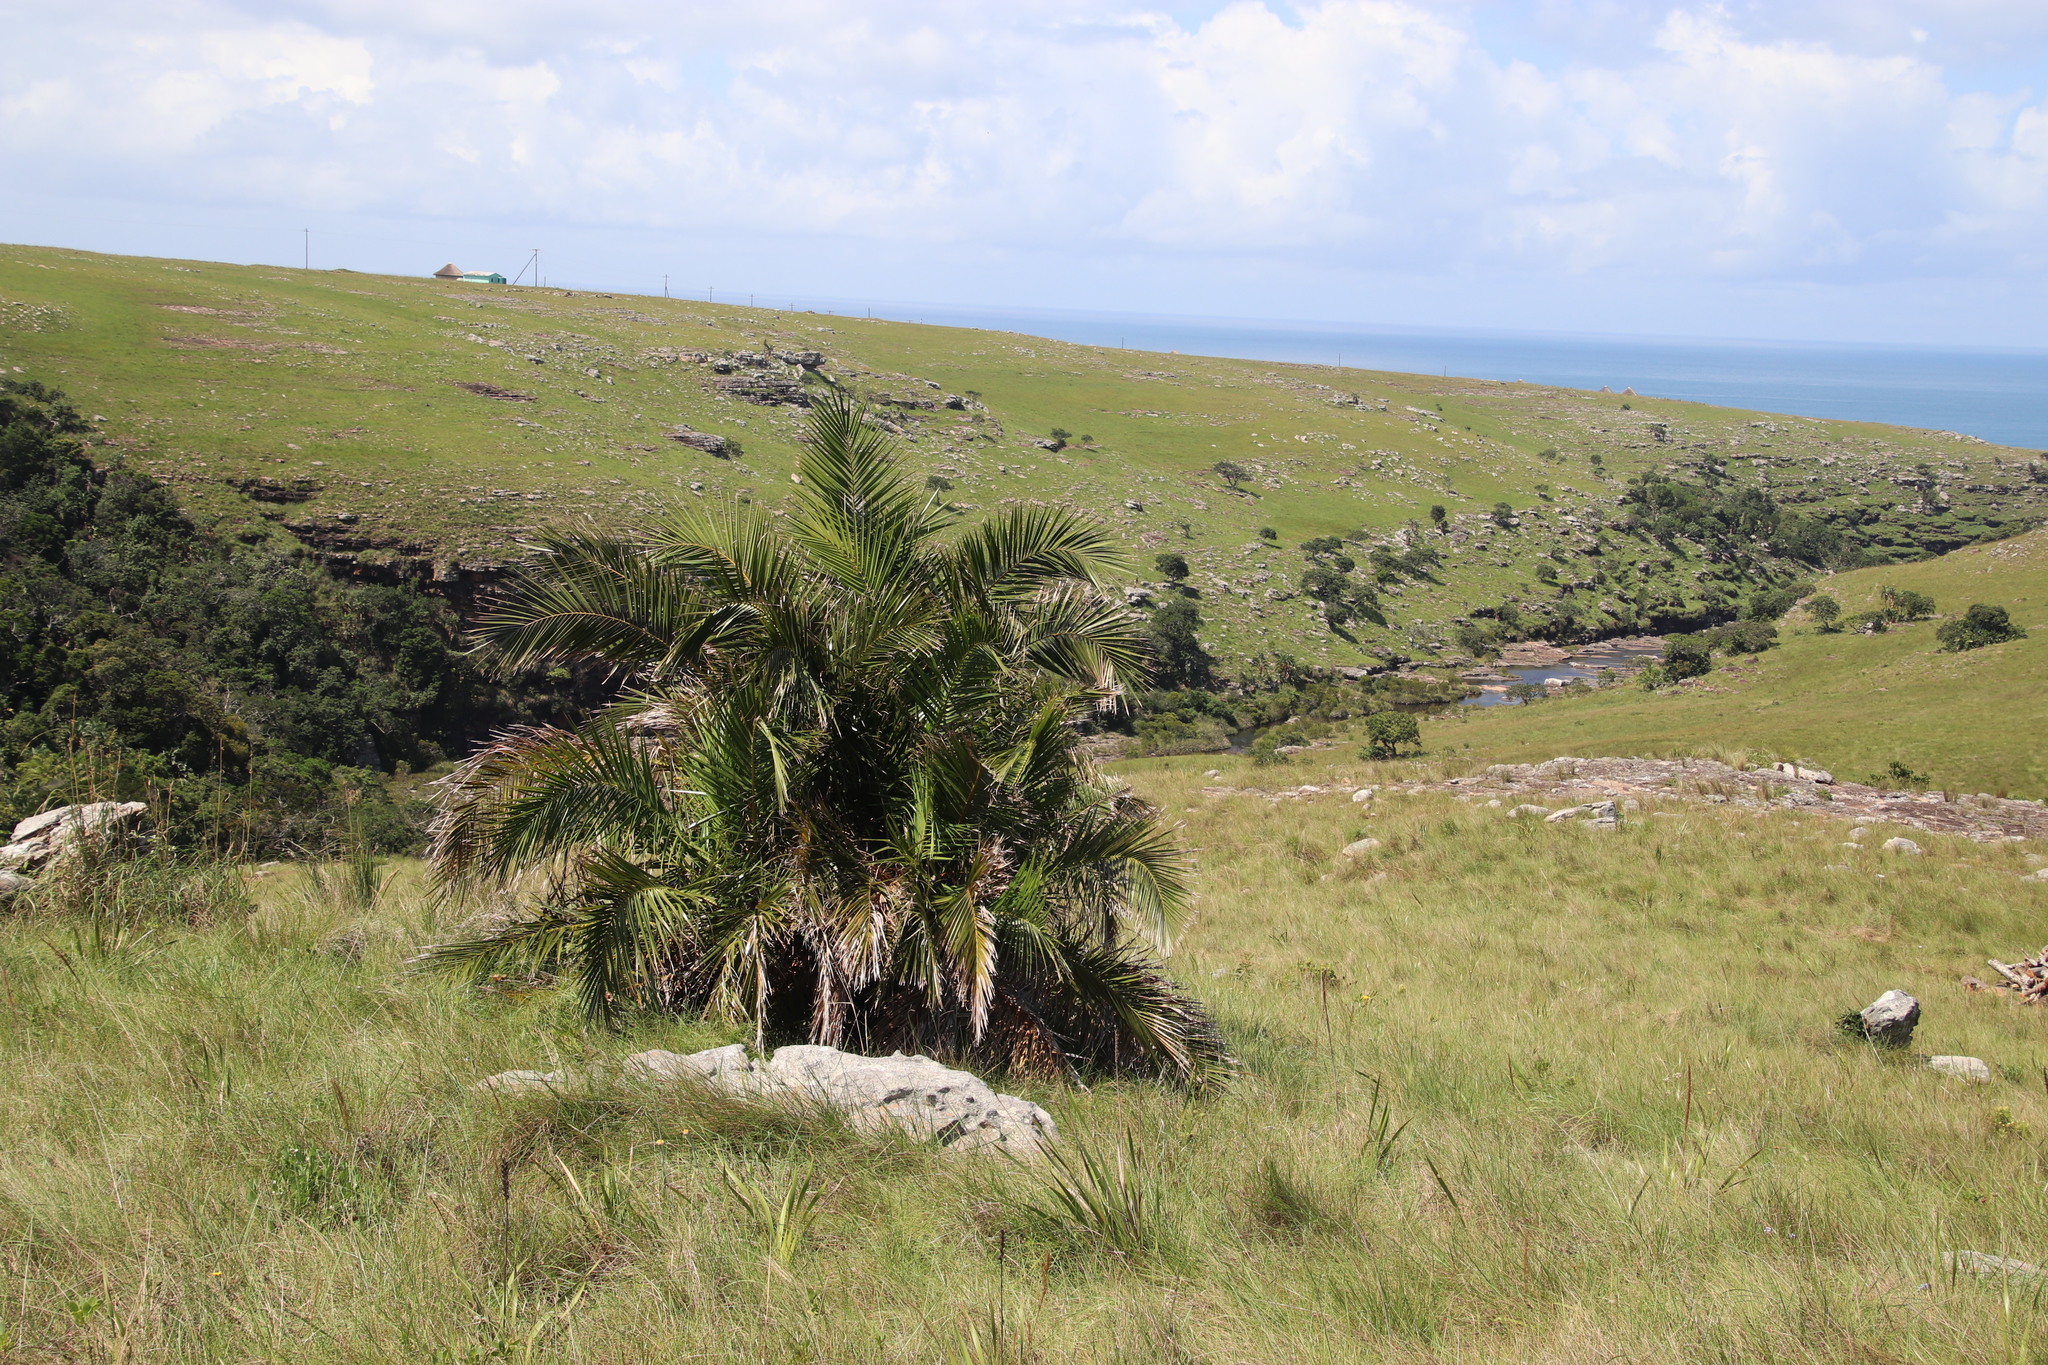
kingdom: Plantae
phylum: Tracheophyta
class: Liliopsida
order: Arecales
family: Arecaceae
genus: Phoenix
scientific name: Phoenix reclinata
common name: Senegal date palm
